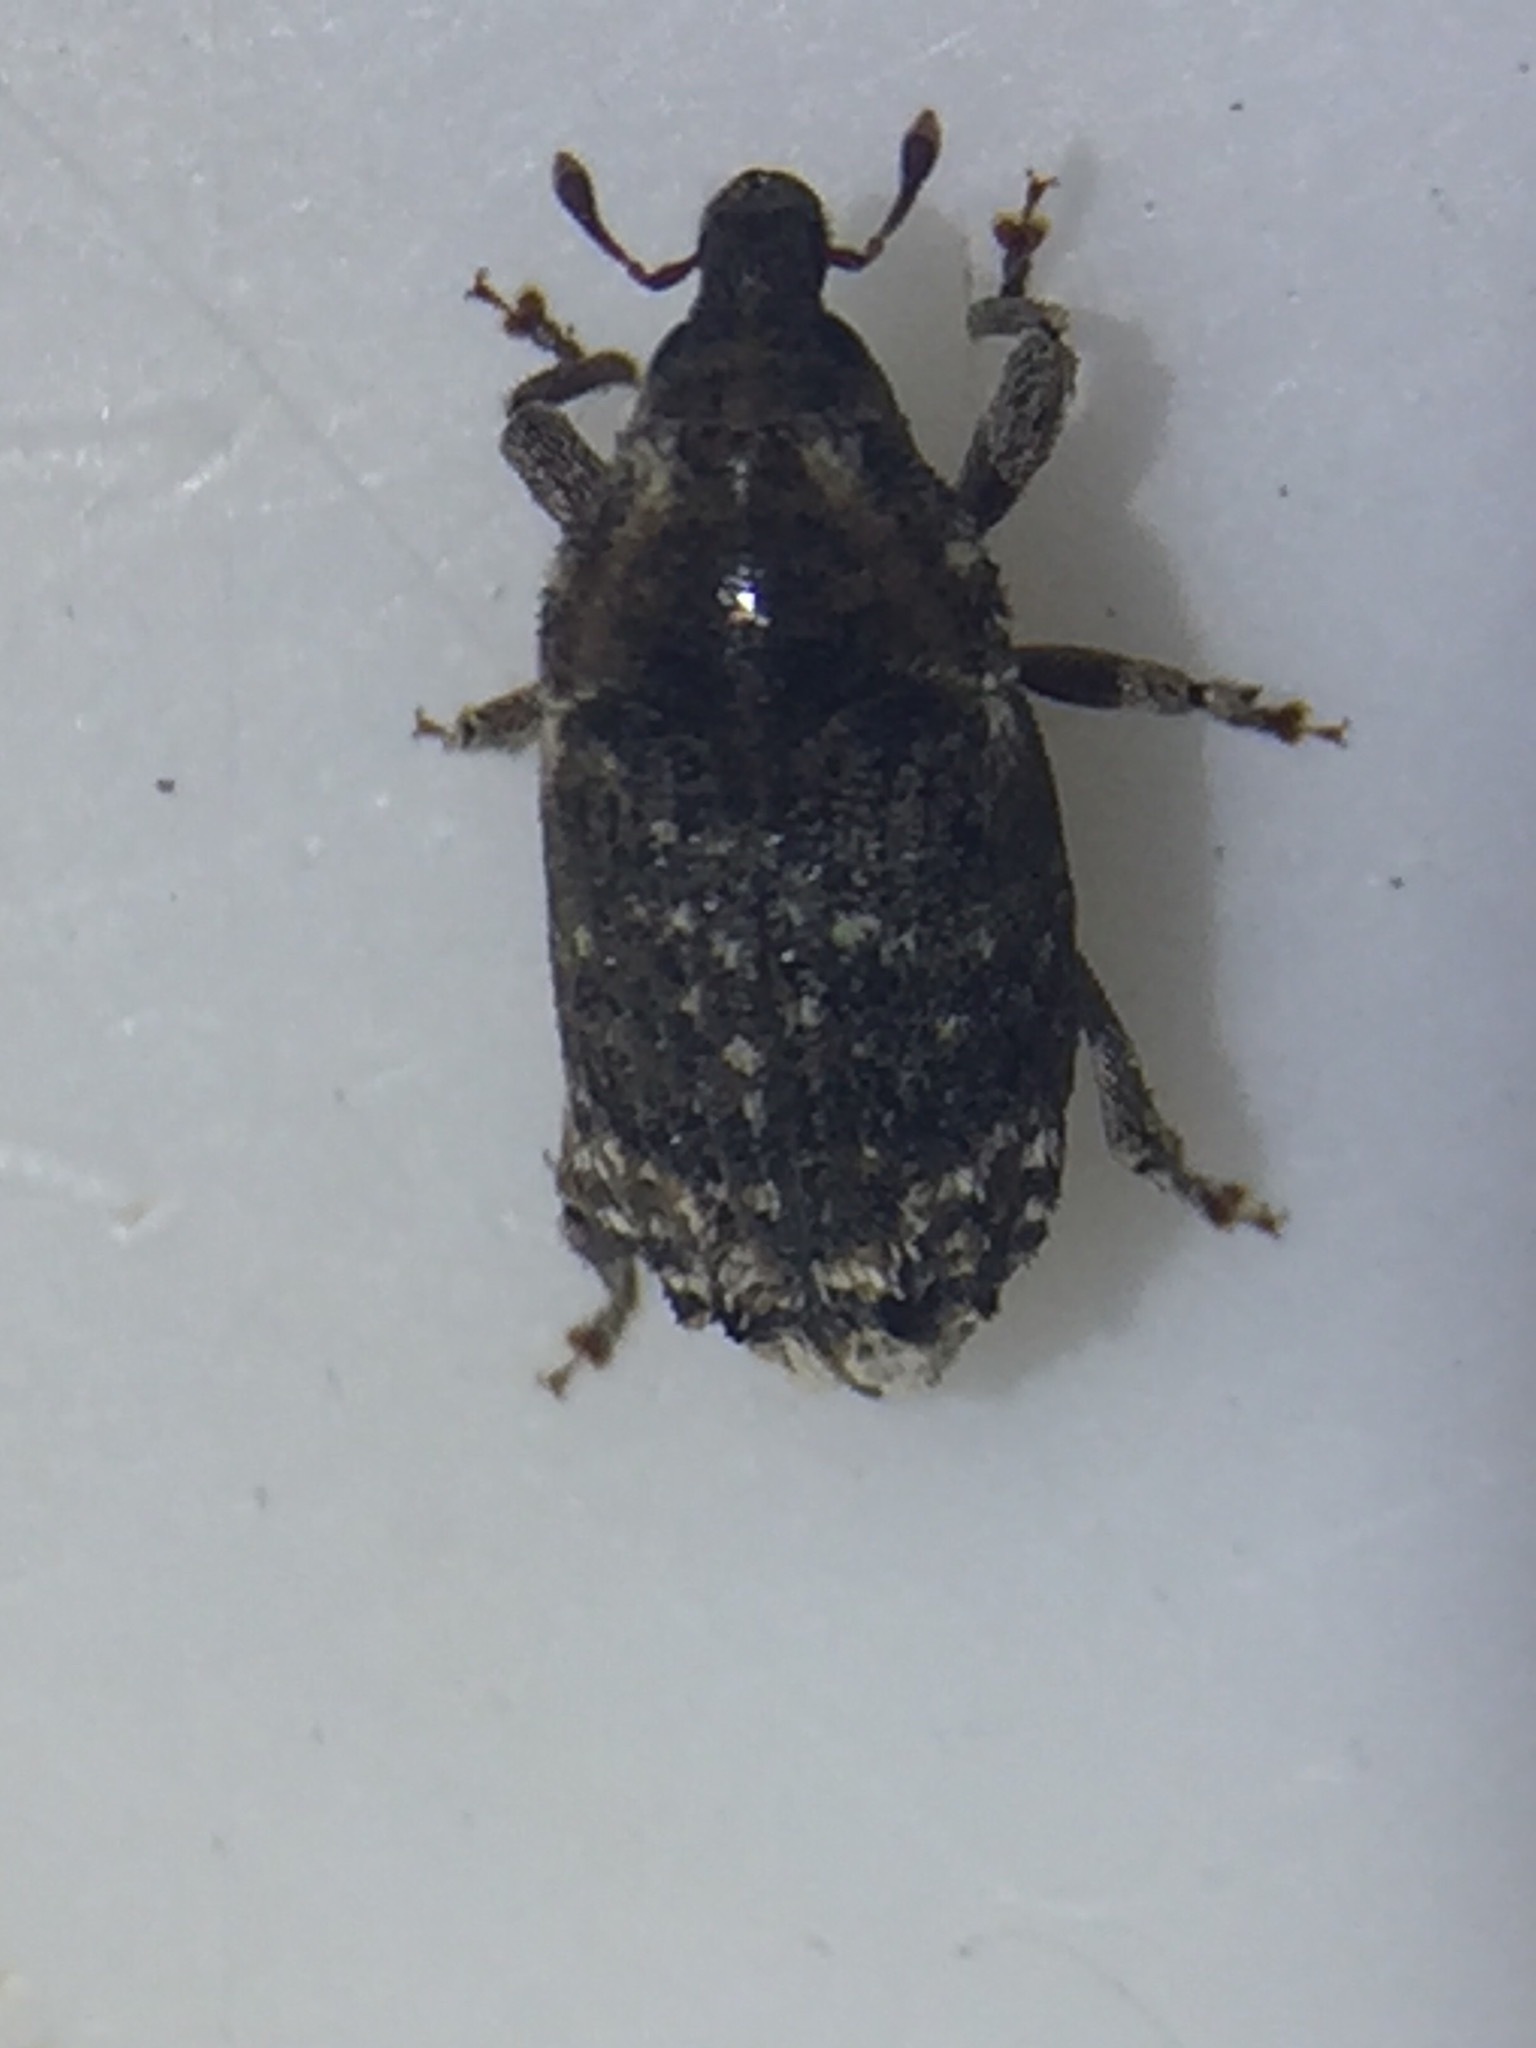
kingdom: Animalia
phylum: Arthropoda
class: Insecta
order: Coleoptera
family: Curculionidae
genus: Psepholax
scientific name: Psepholax femoratus
